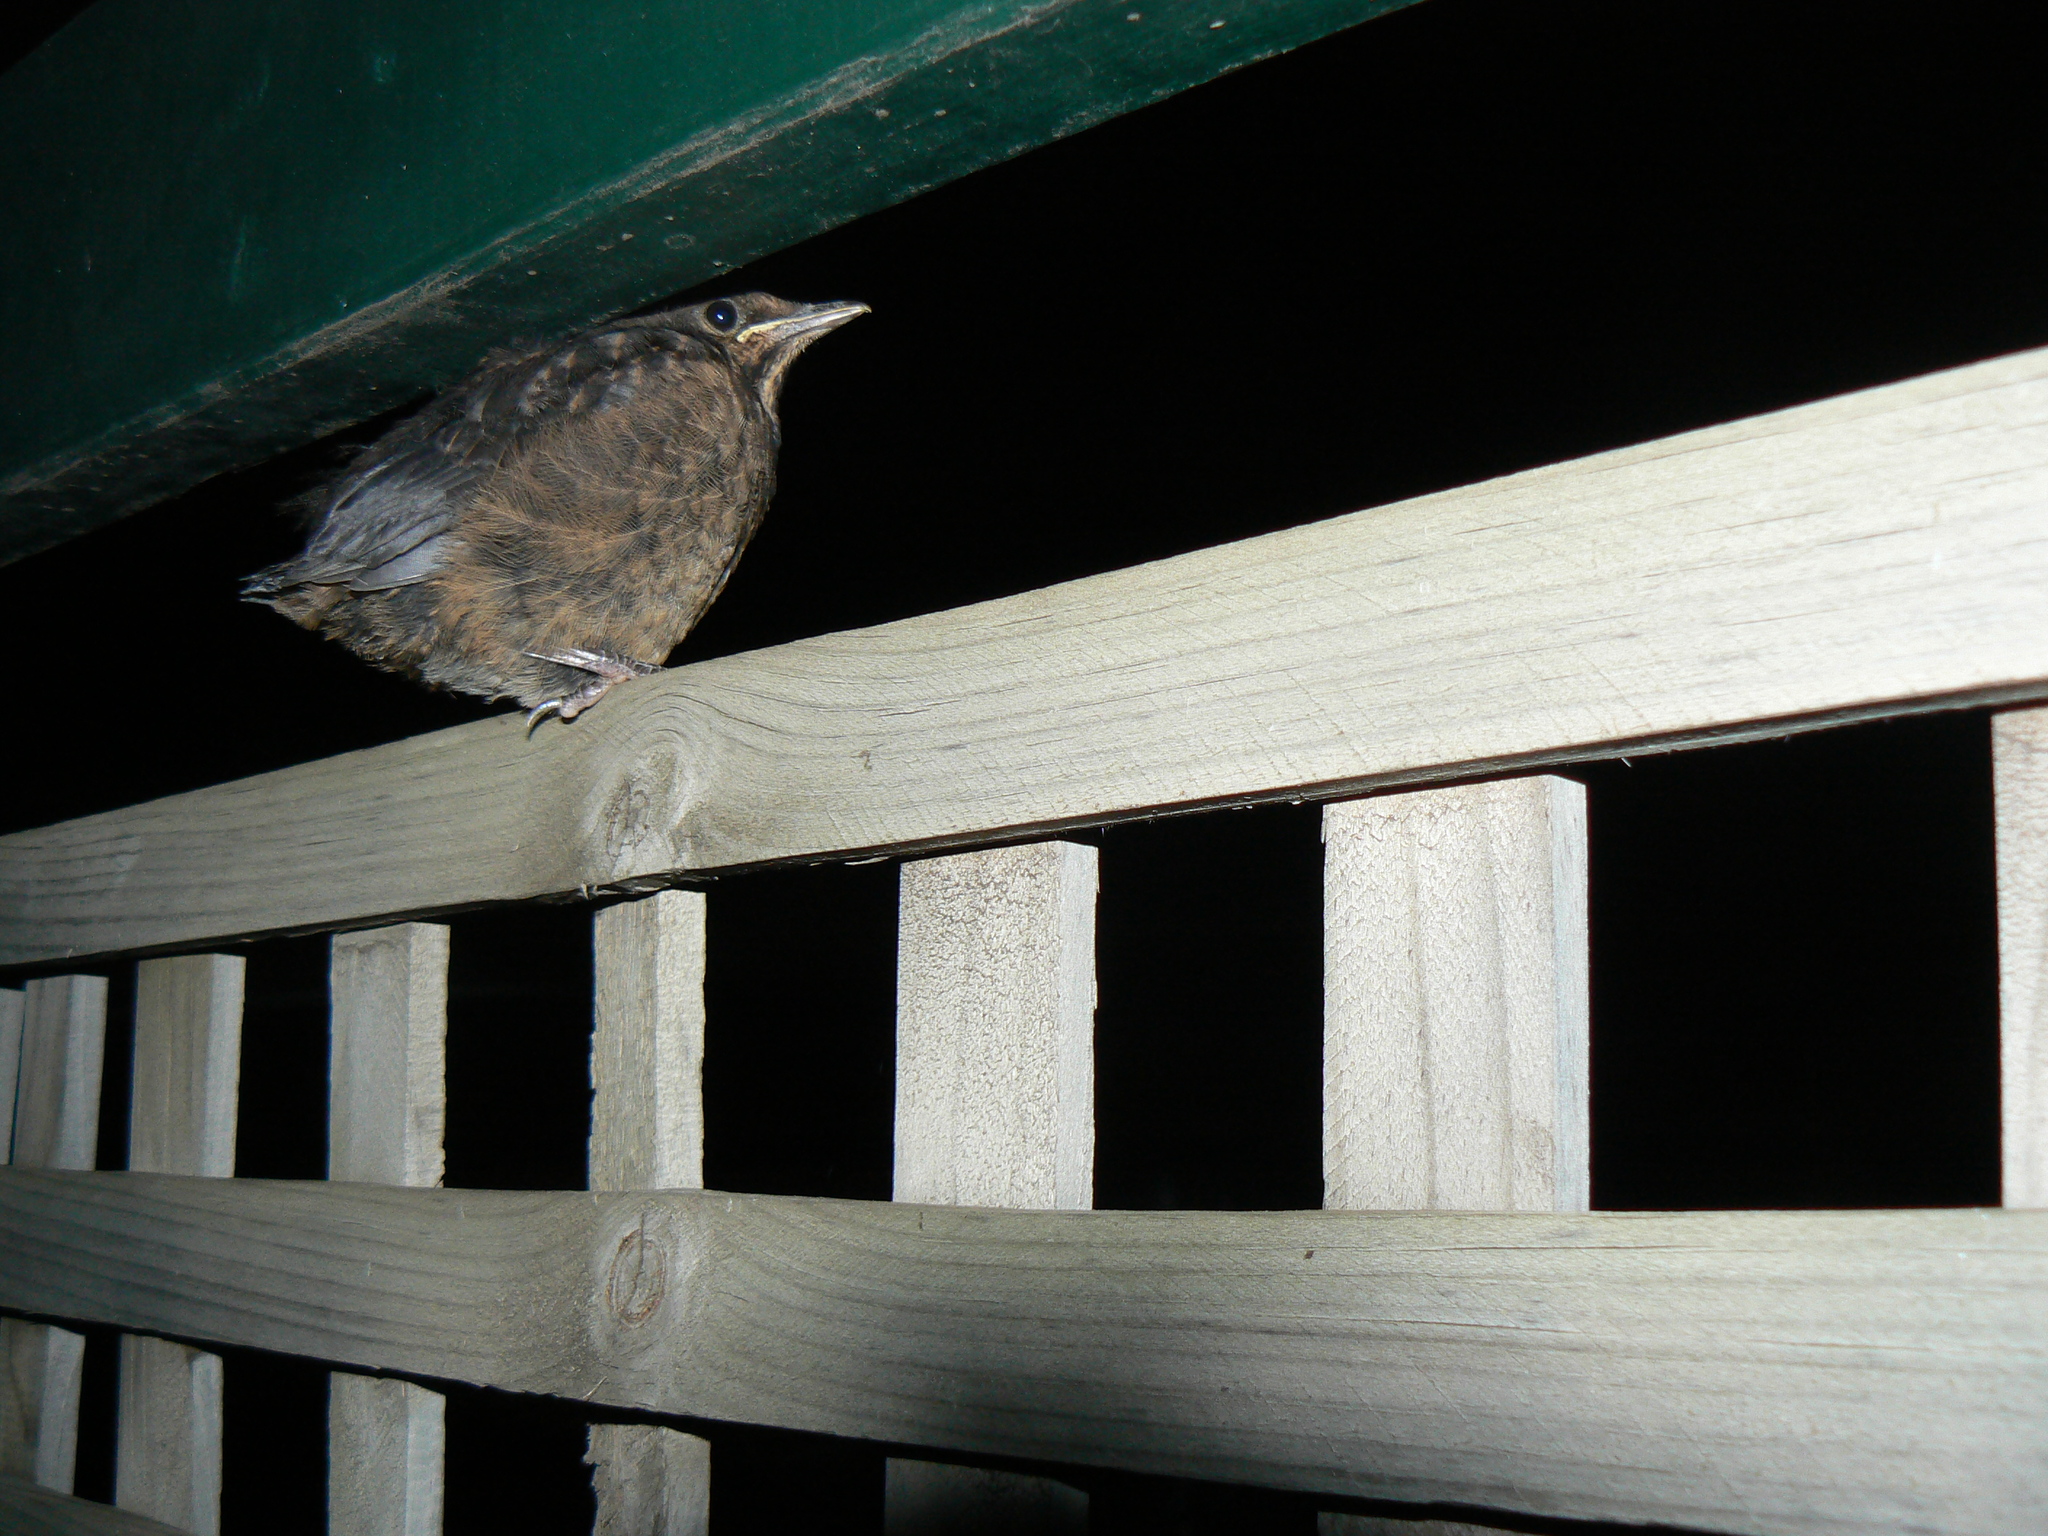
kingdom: Animalia
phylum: Chordata
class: Aves
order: Passeriformes
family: Turdidae
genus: Turdus
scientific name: Turdus merula
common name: Common blackbird
